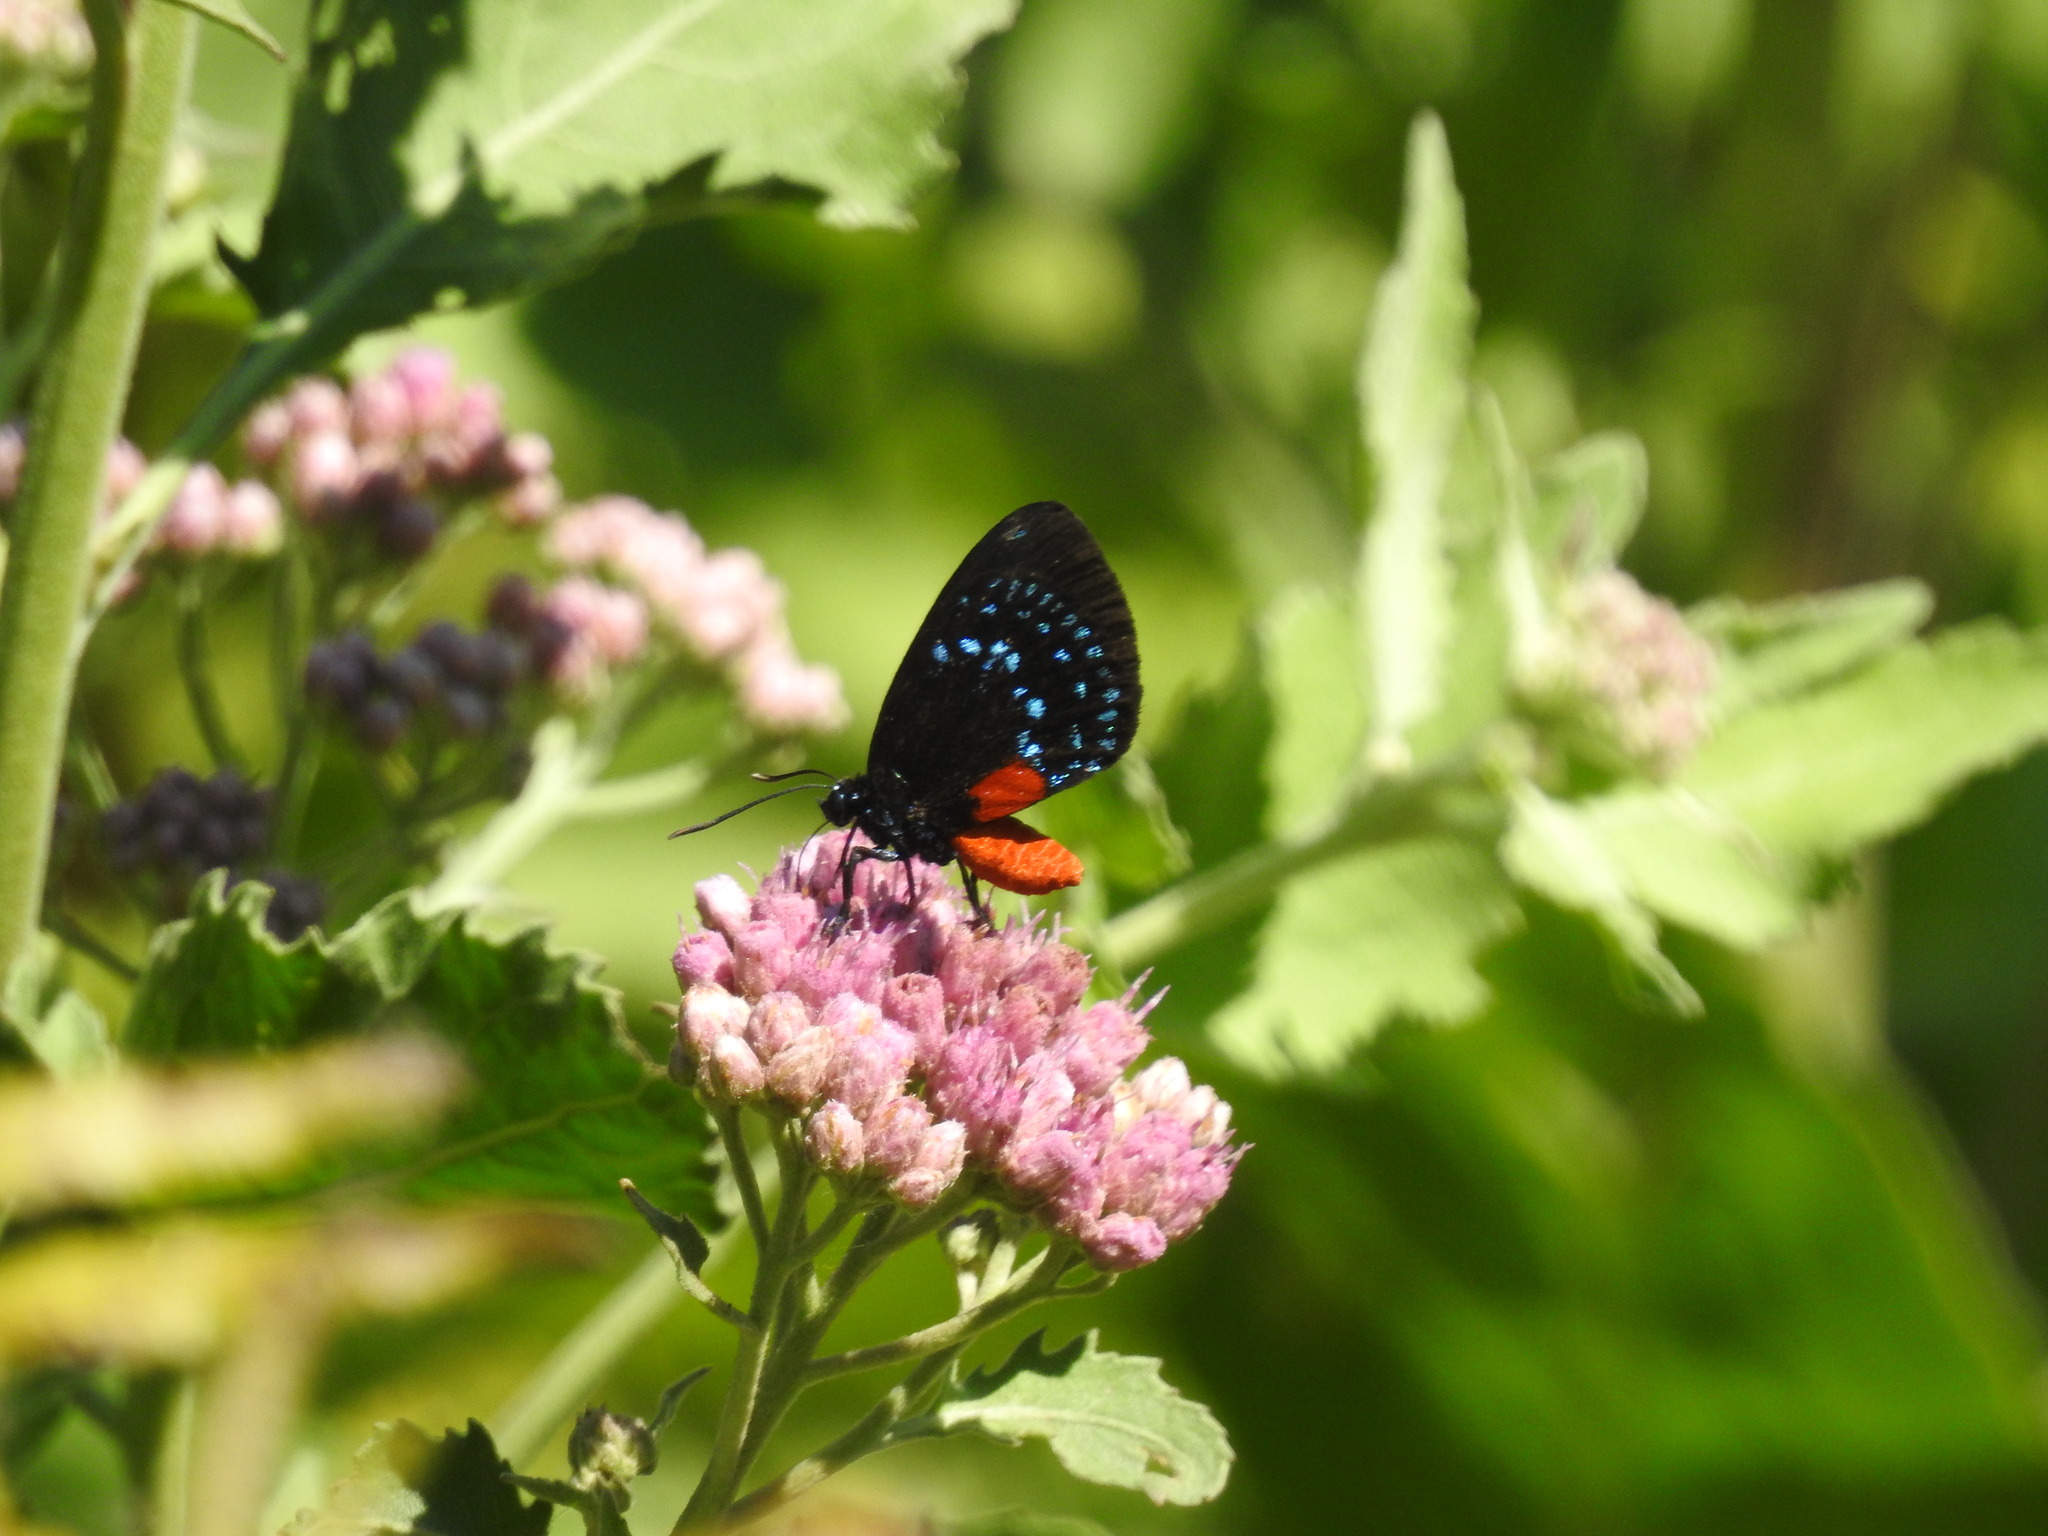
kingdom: Animalia
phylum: Arthropoda
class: Insecta
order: Lepidoptera
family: Lycaenidae
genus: Eumaeus
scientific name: Eumaeus atala
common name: Atala
